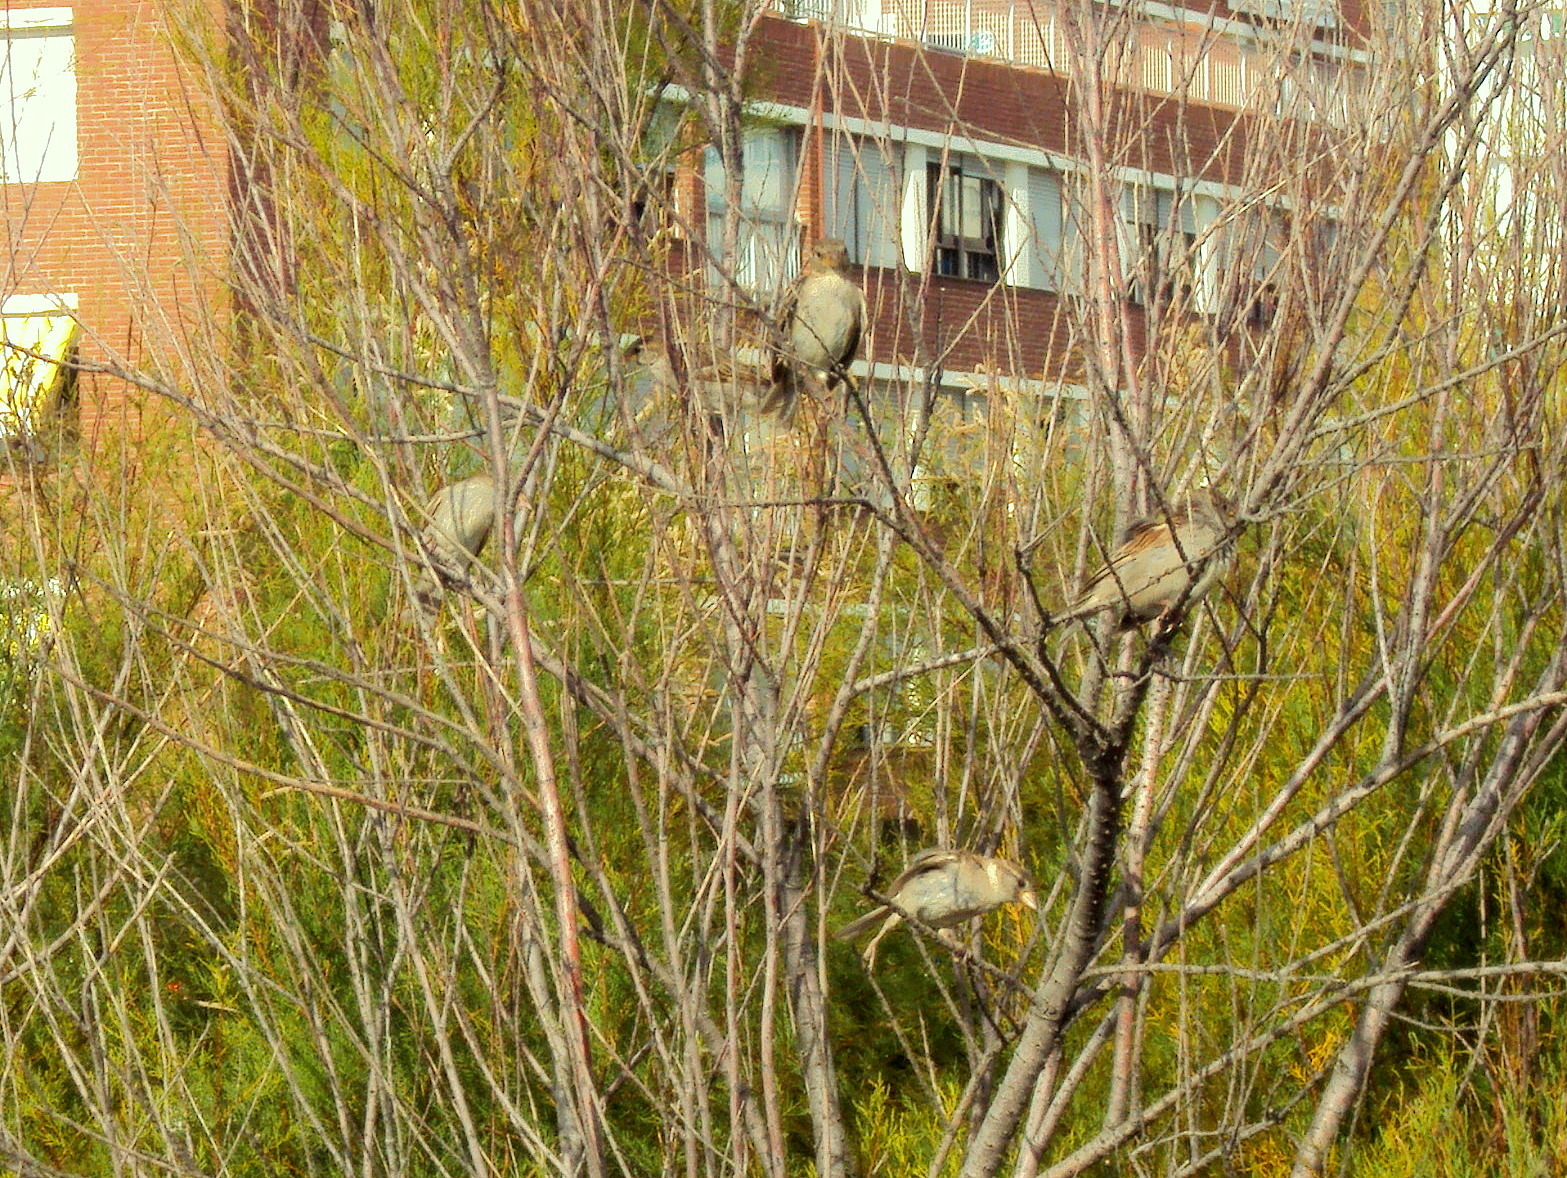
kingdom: Animalia
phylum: Chordata
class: Aves
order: Passeriformes
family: Passeridae
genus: Passer
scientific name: Passer domesticus
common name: House sparrow
